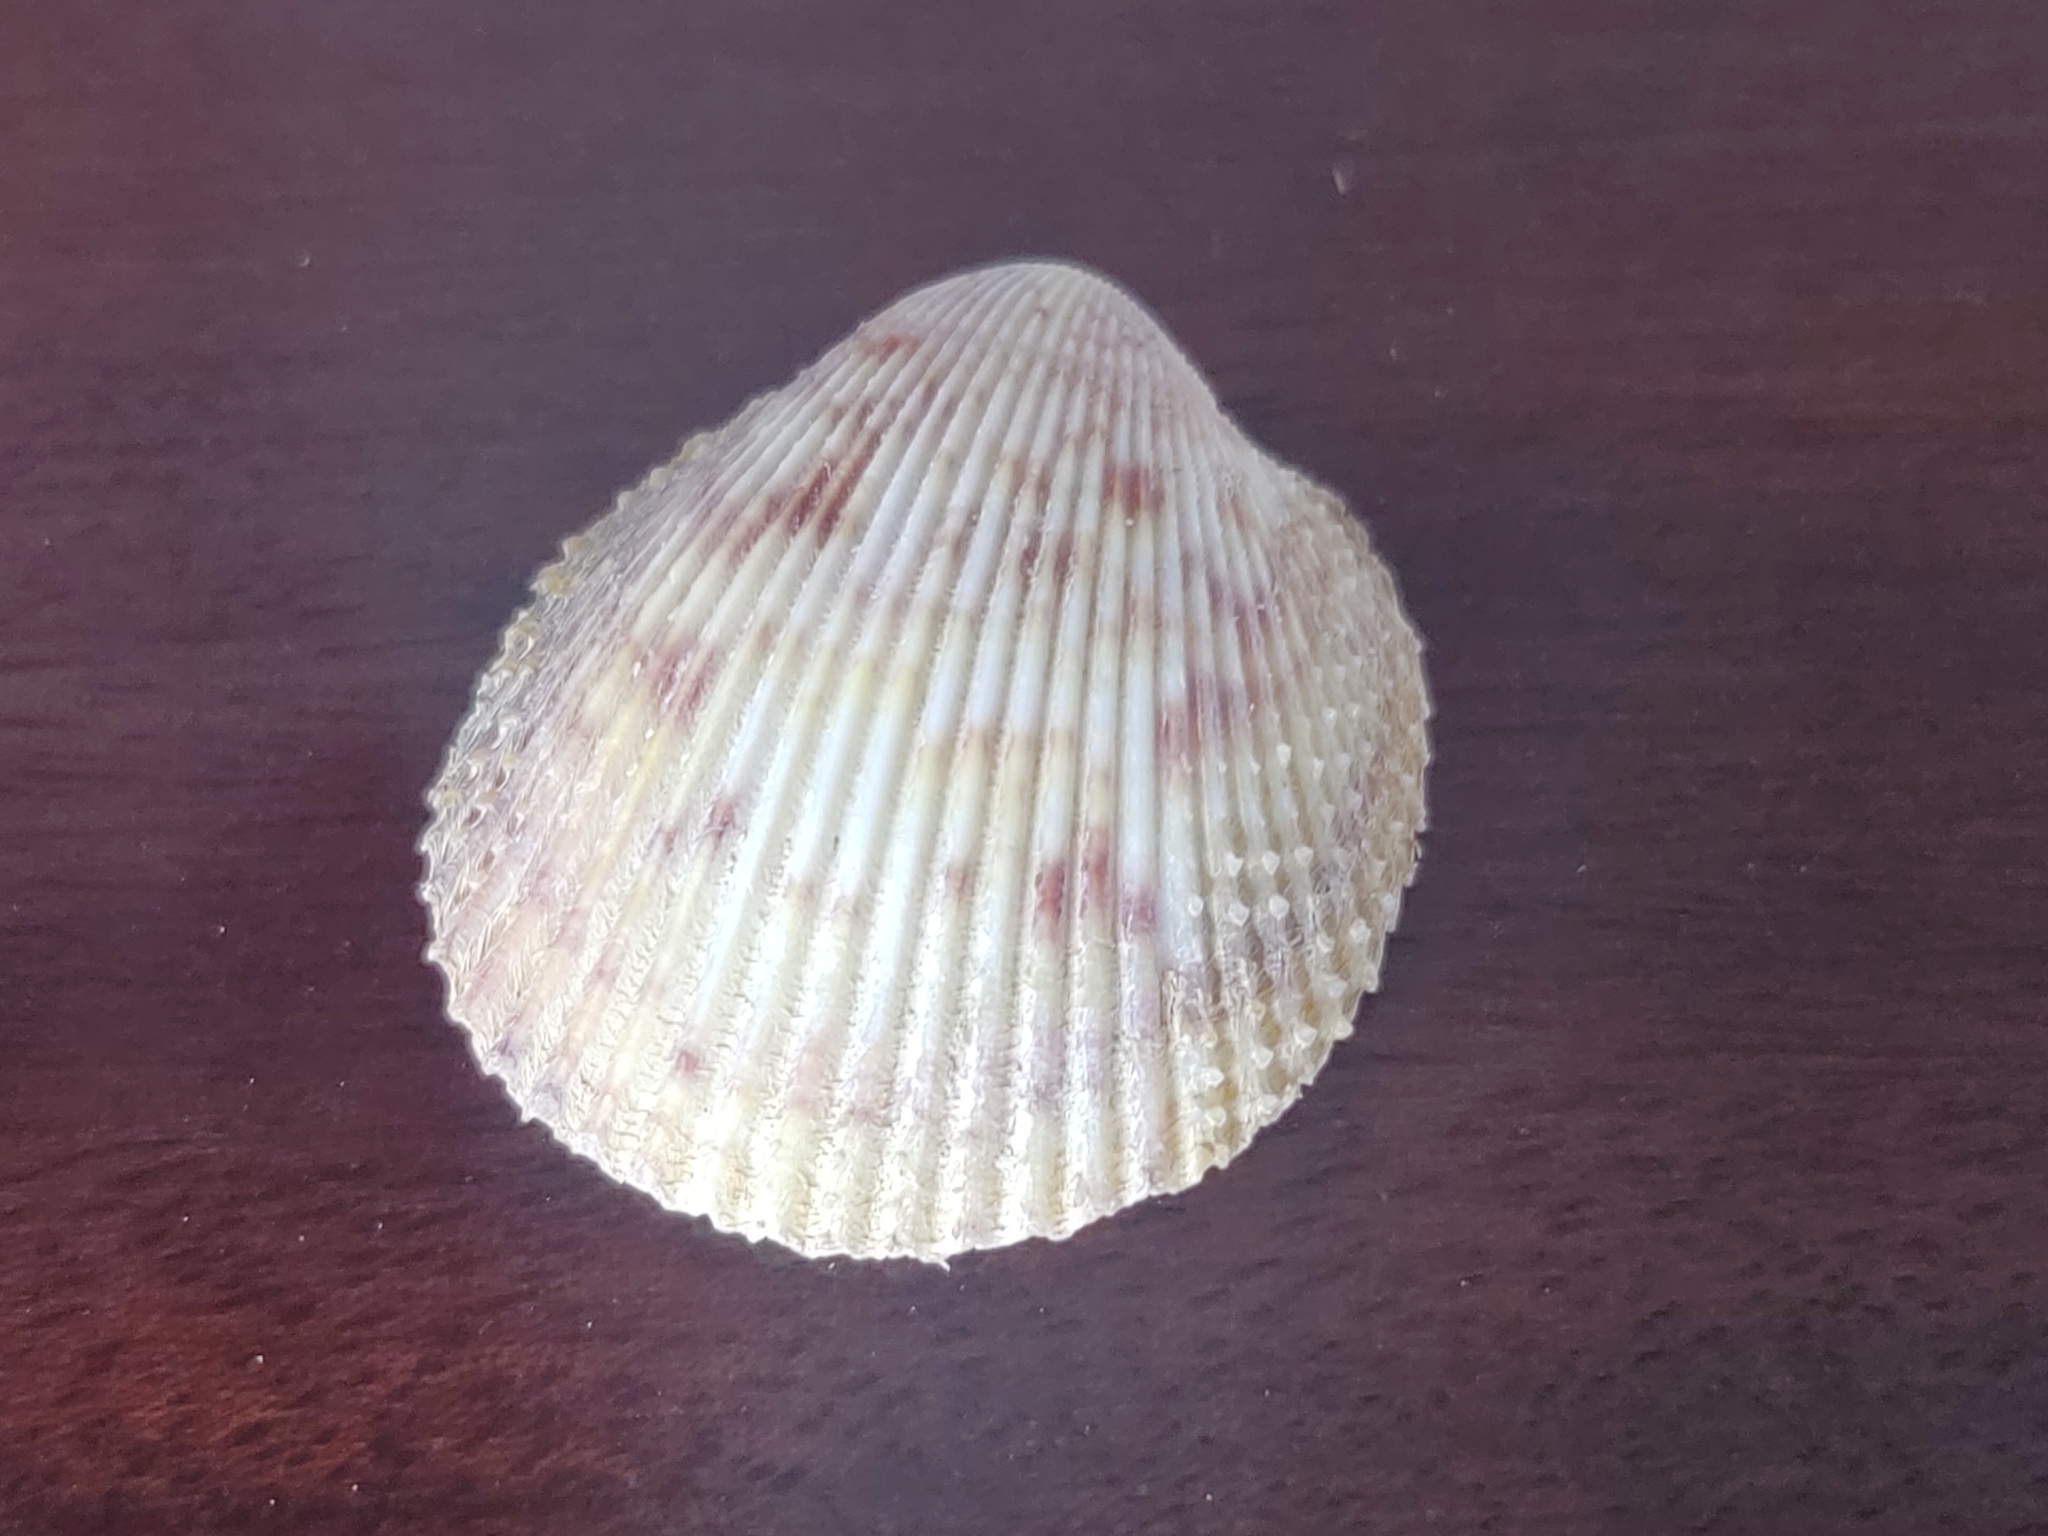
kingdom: Animalia
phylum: Mollusca
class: Bivalvia
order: Cardiida
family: Cardiidae
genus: Dallocardia
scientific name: Dallocardia muricata
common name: Yellow pricklycockle
